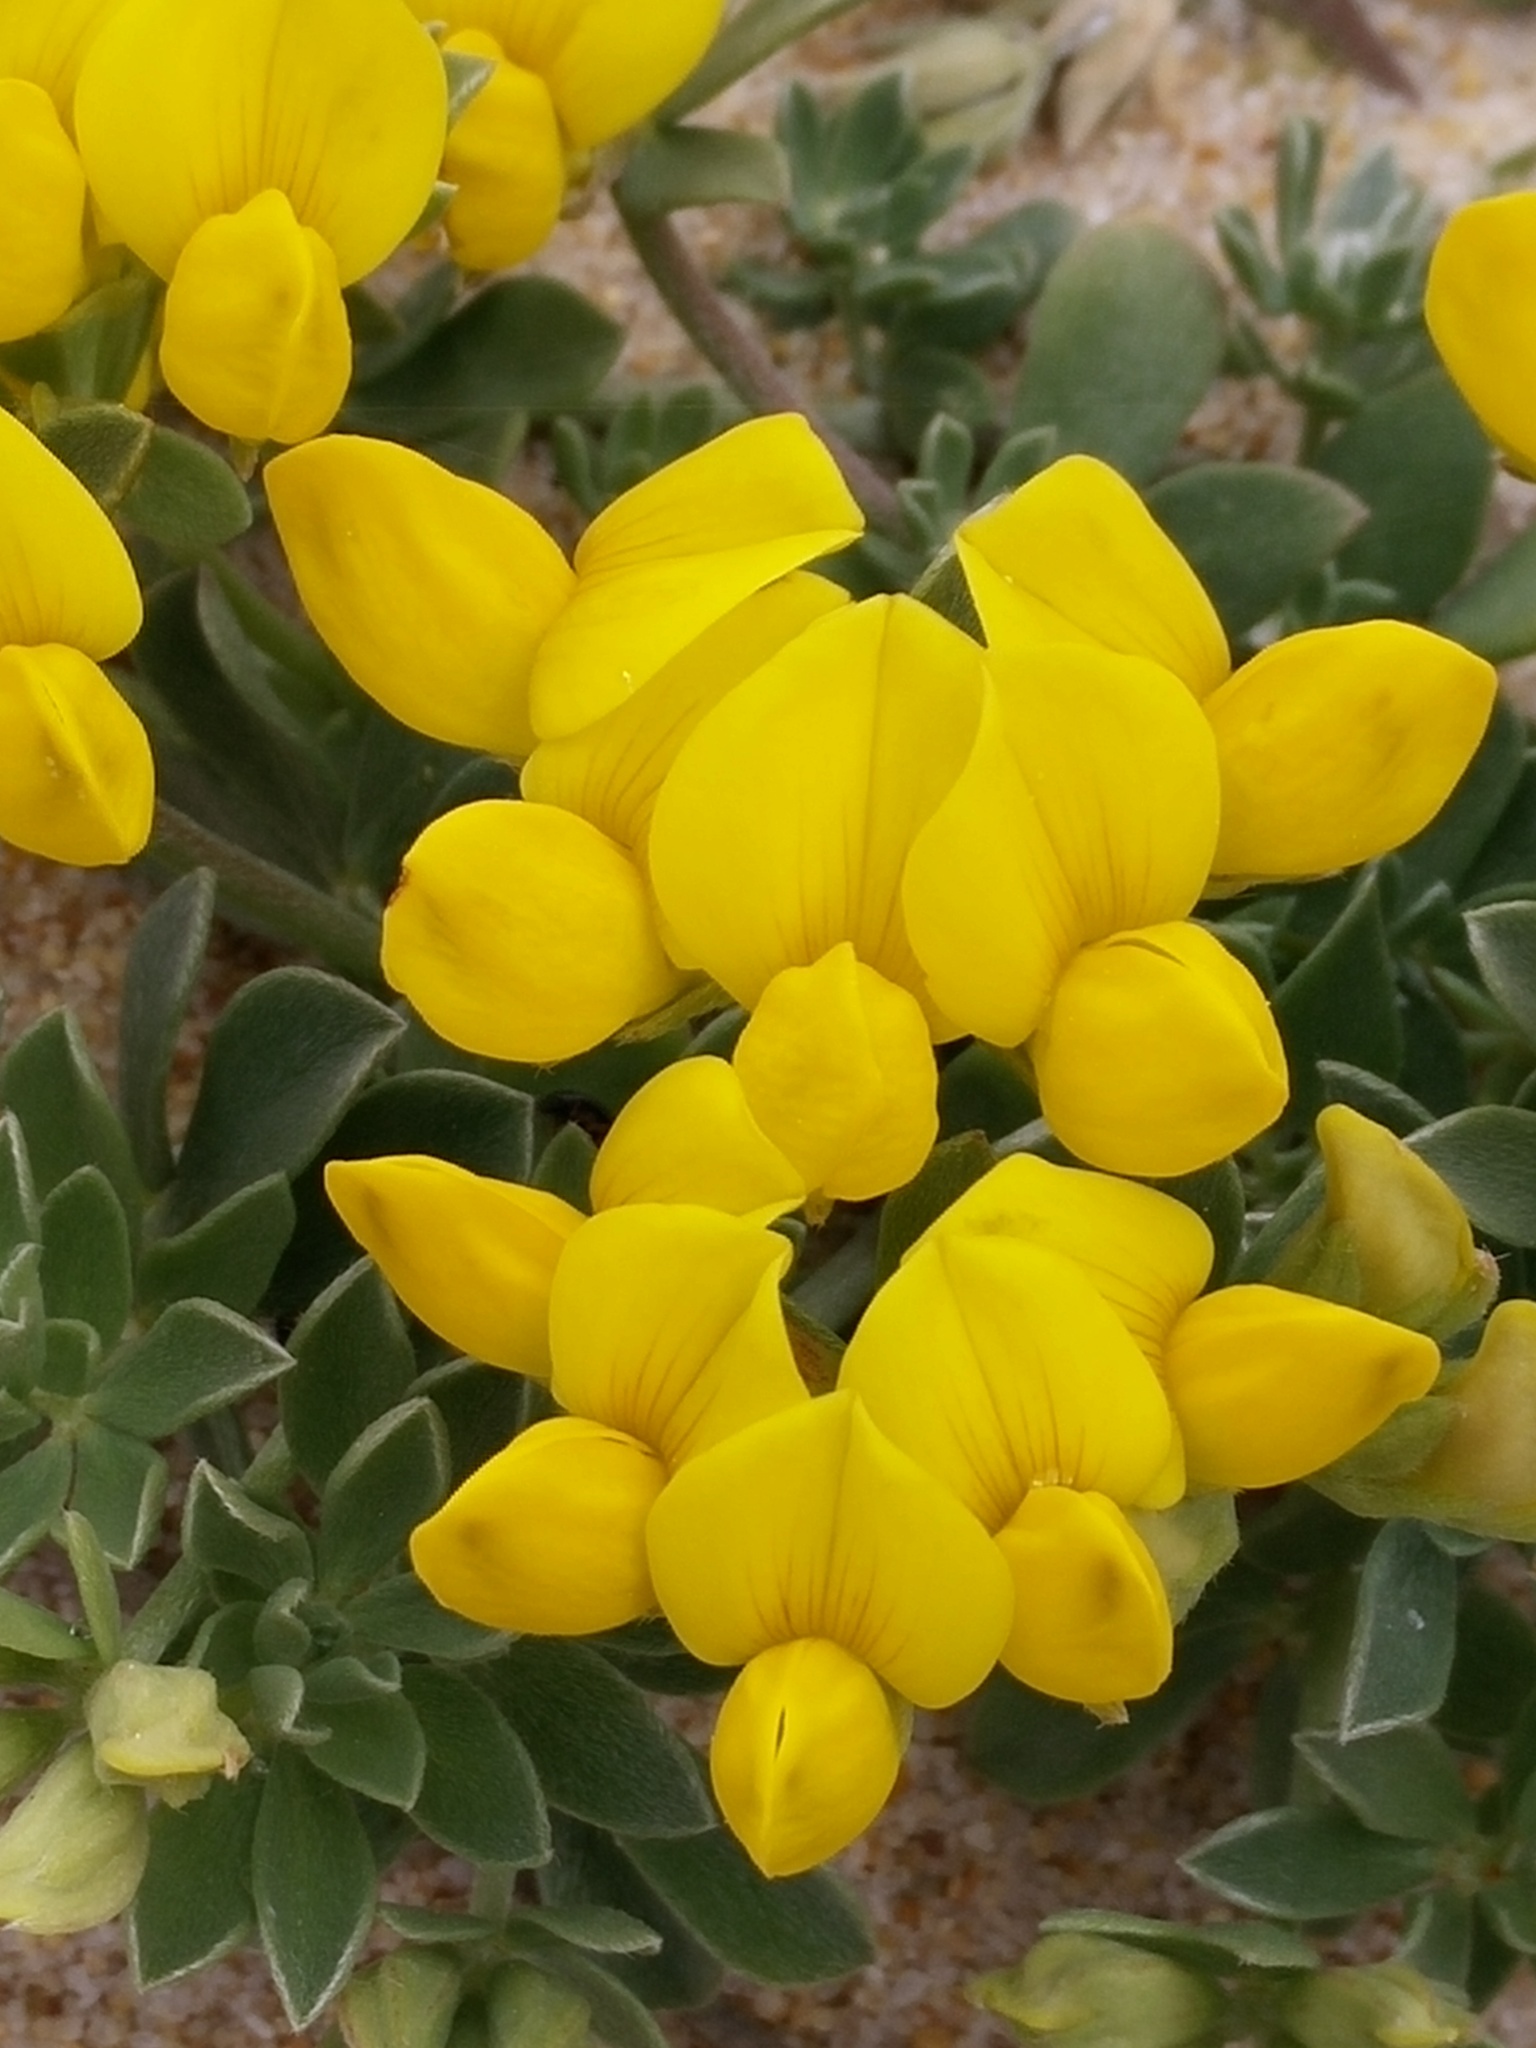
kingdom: Plantae
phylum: Tracheophyta
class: Magnoliopsida
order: Fabales
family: Fabaceae
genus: Lotus
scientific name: Lotus creticus
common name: Cretan bird's-foot trefoil
